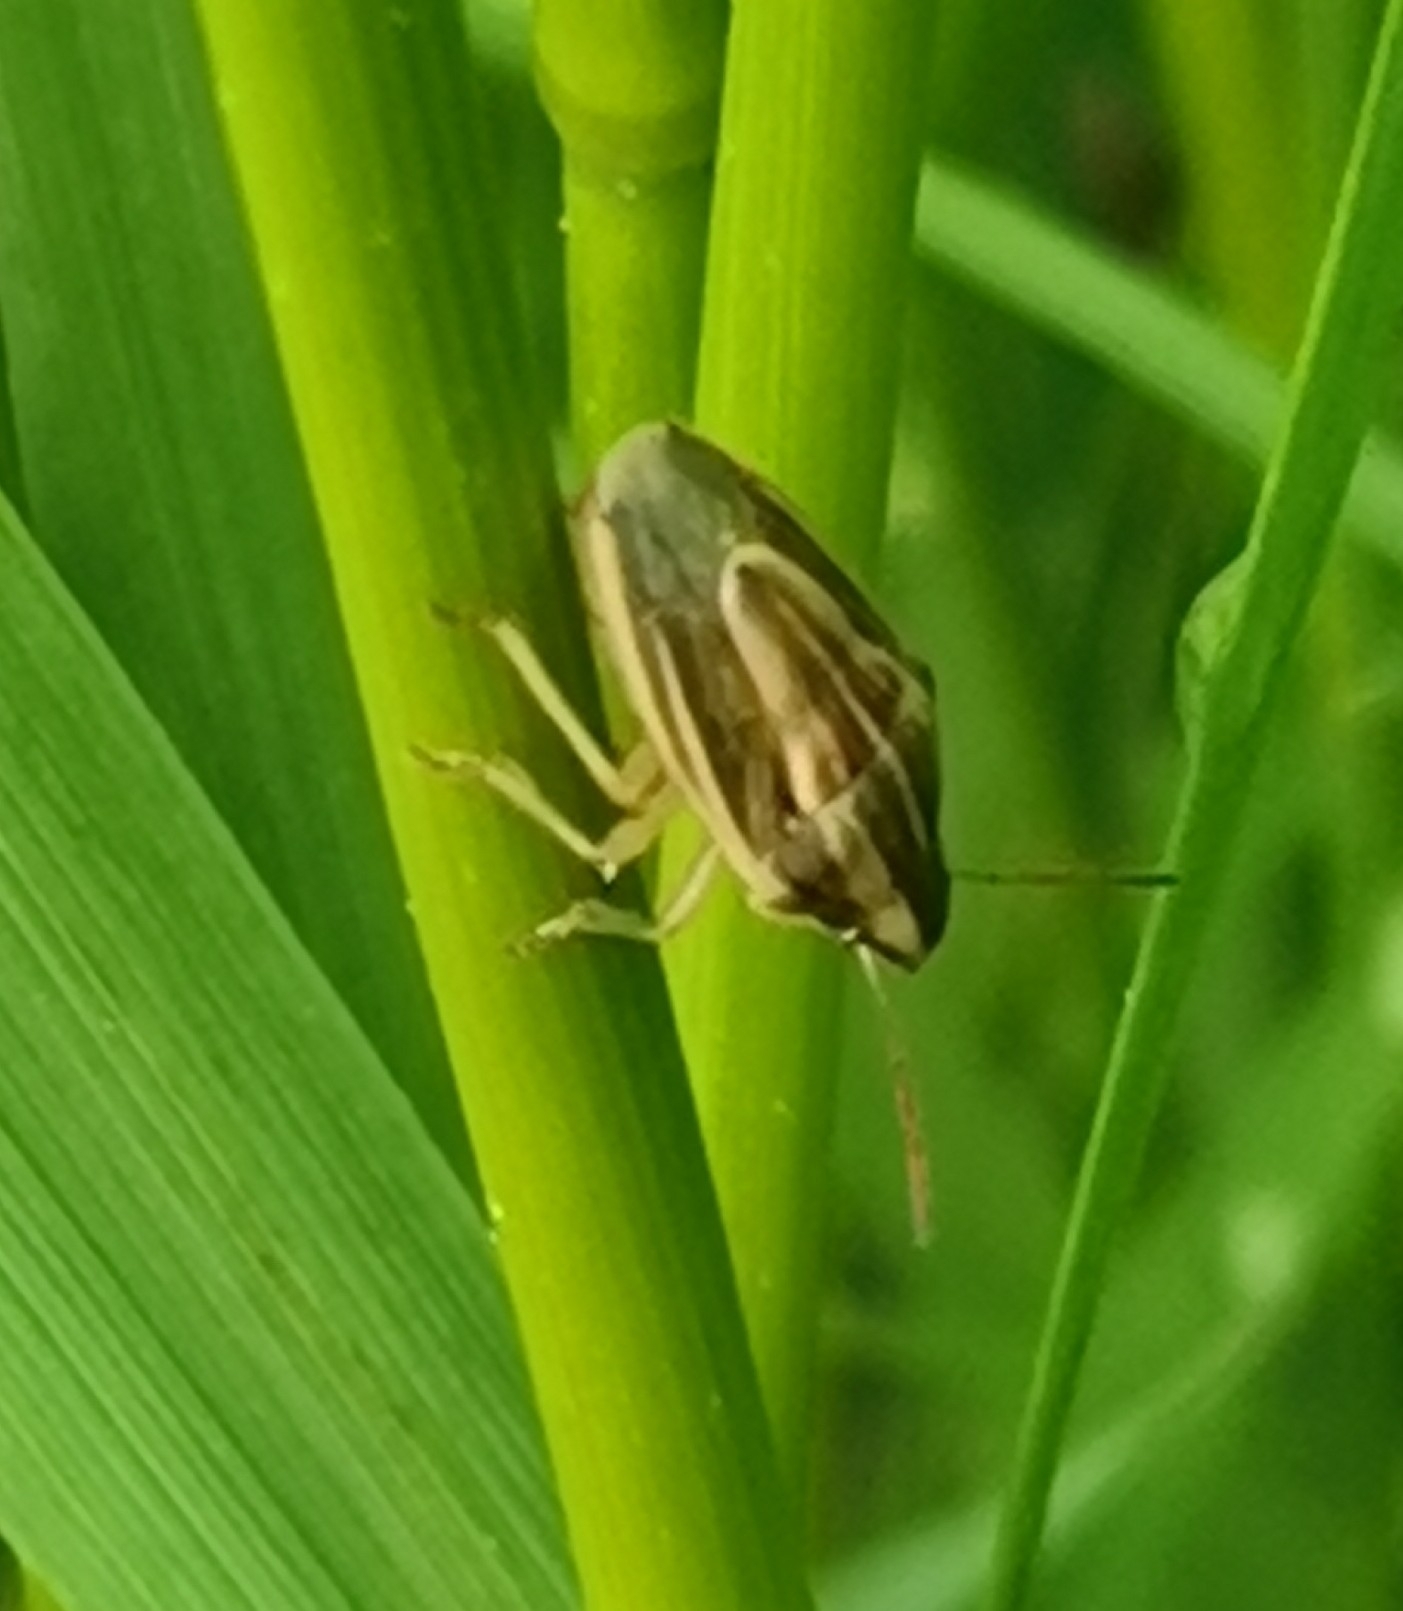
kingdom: Animalia
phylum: Arthropoda
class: Insecta
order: Hemiptera
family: Pentatomidae
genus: Aelia
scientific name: Aelia acuminata
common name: Bishop's mitre
